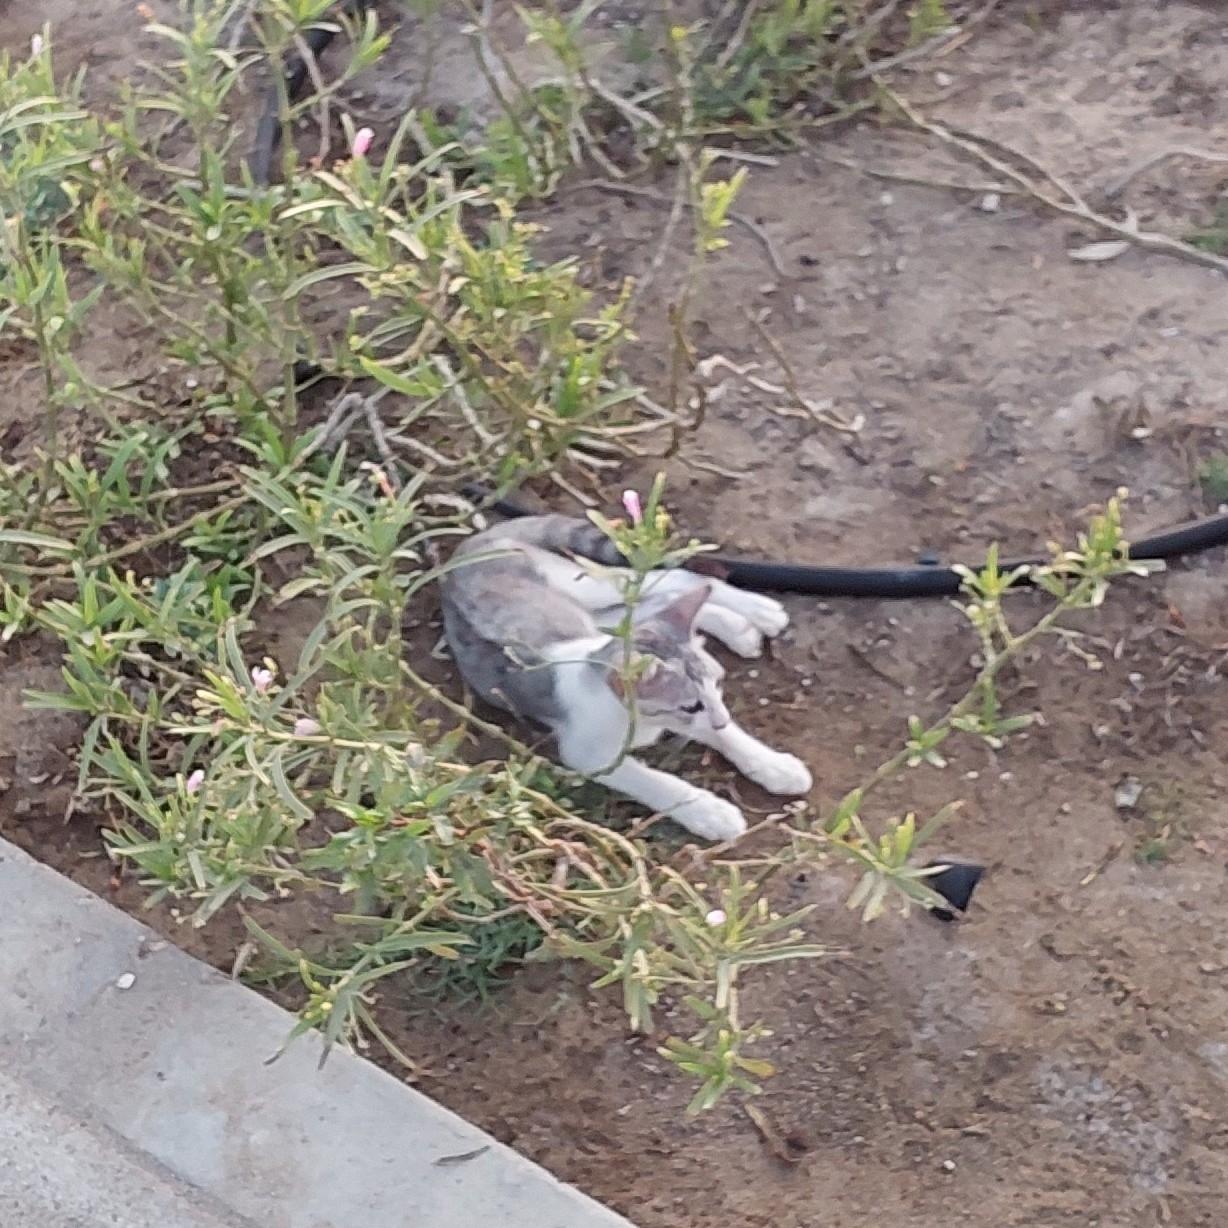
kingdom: Animalia
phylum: Chordata
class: Mammalia
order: Carnivora
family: Felidae
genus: Felis
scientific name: Felis catus
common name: Domestic cat
